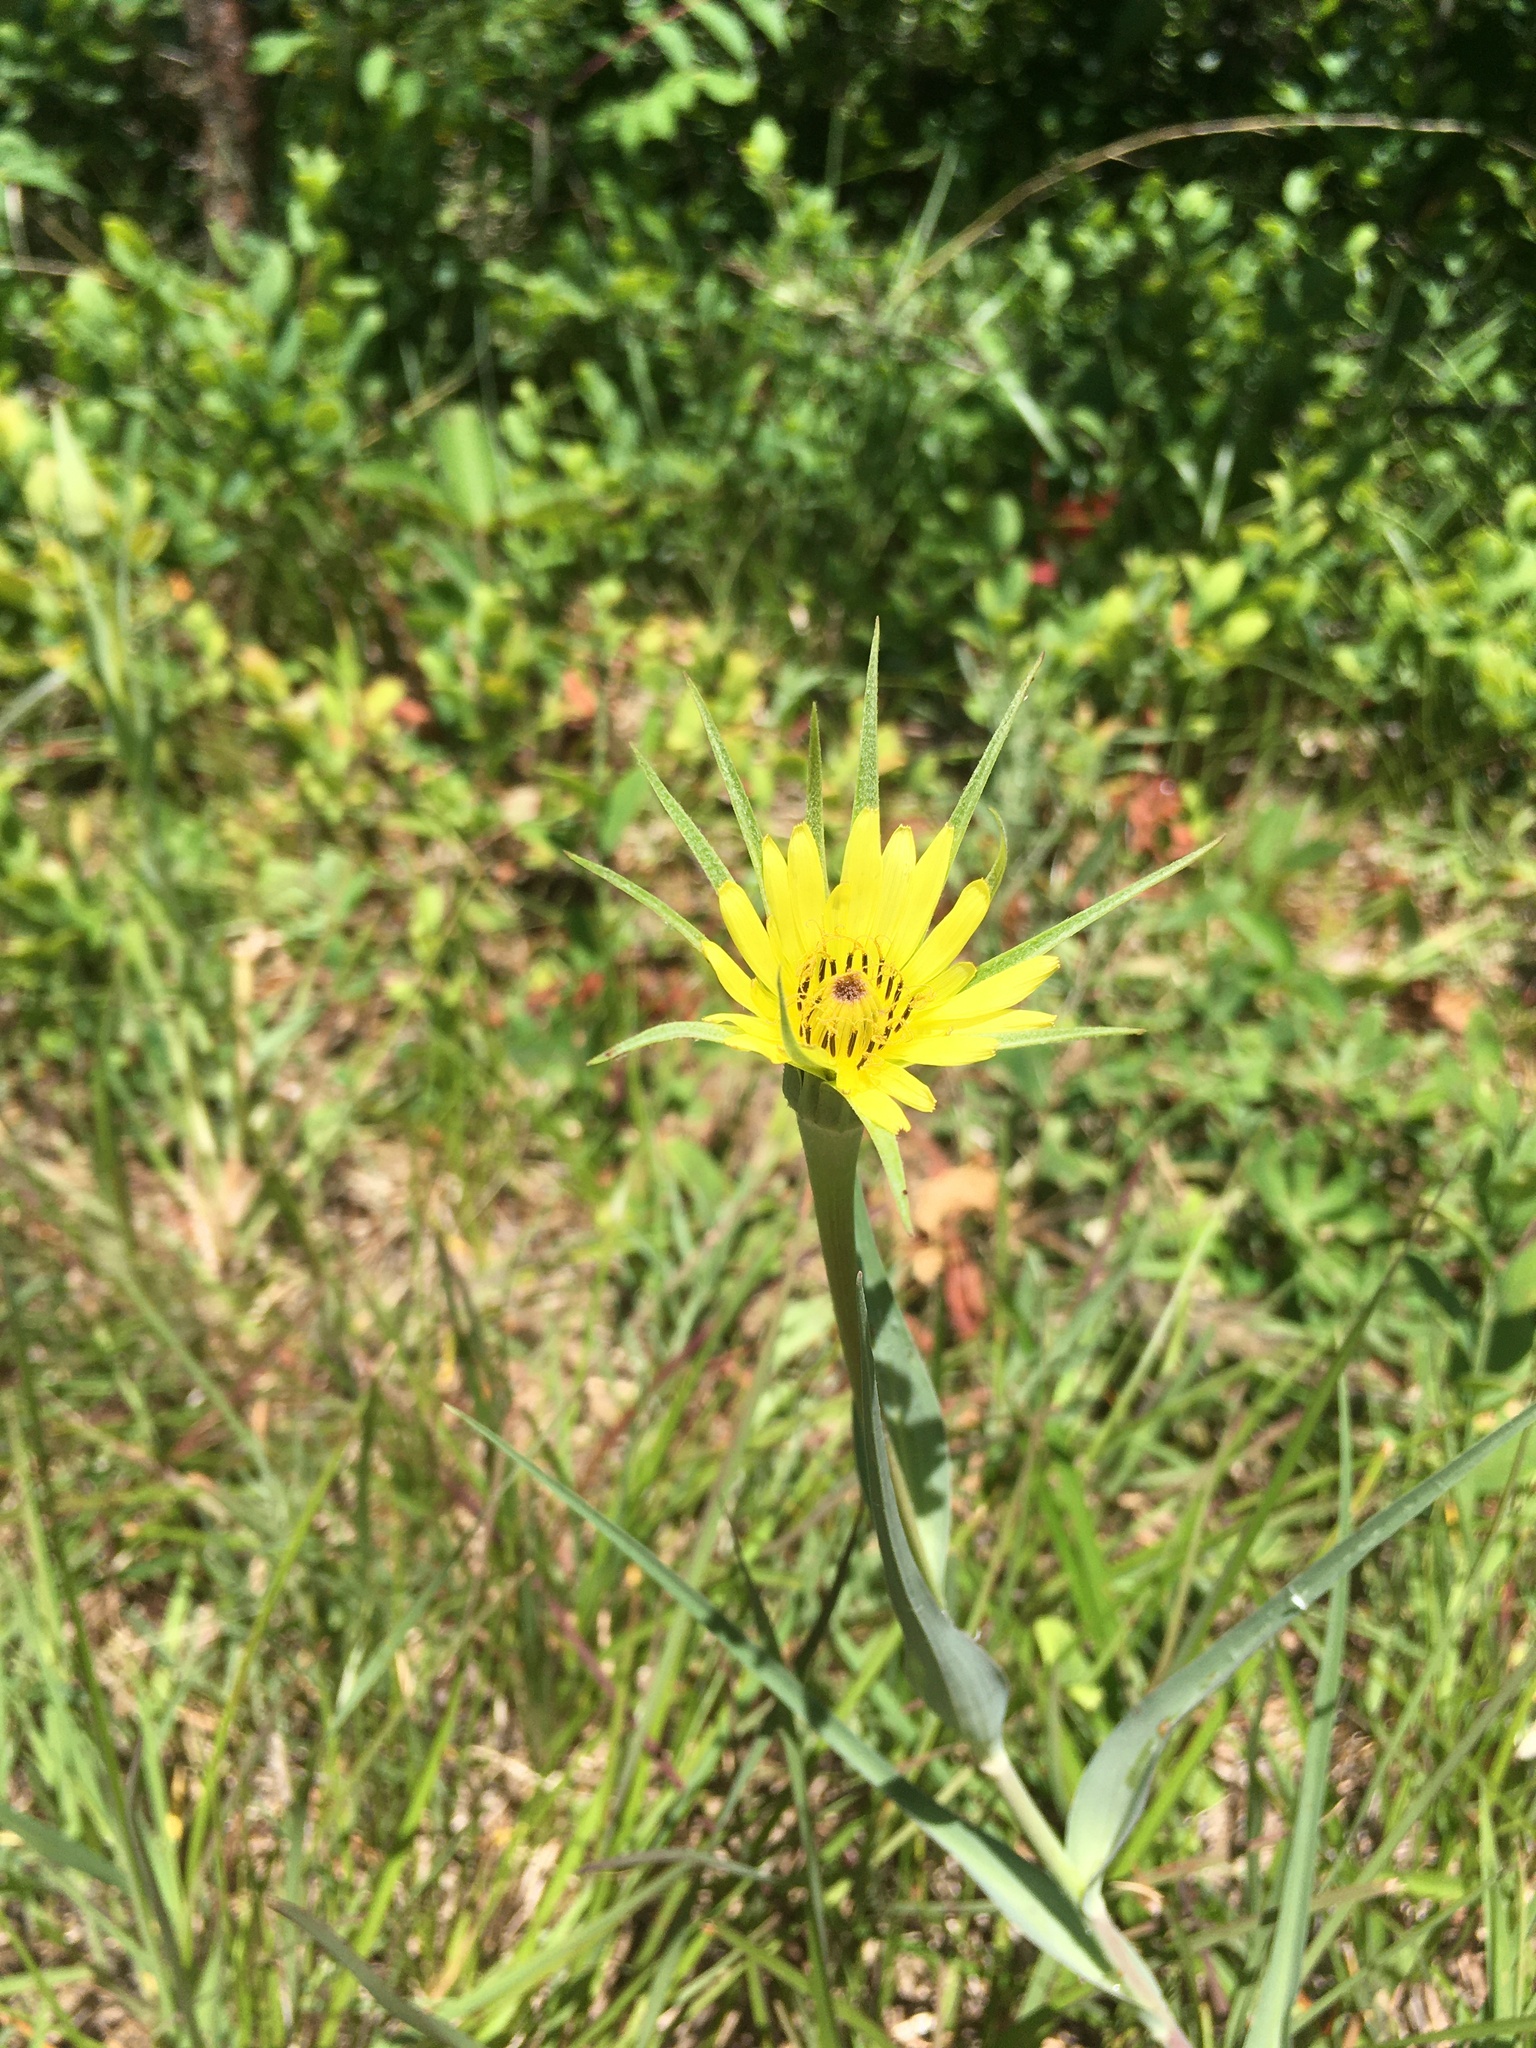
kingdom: Plantae
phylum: Tracheophyta
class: Magnoliopsida
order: Asterales
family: Asteraceae
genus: Tragopogon
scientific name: Tragopogon dubius
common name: Yellow salsify
